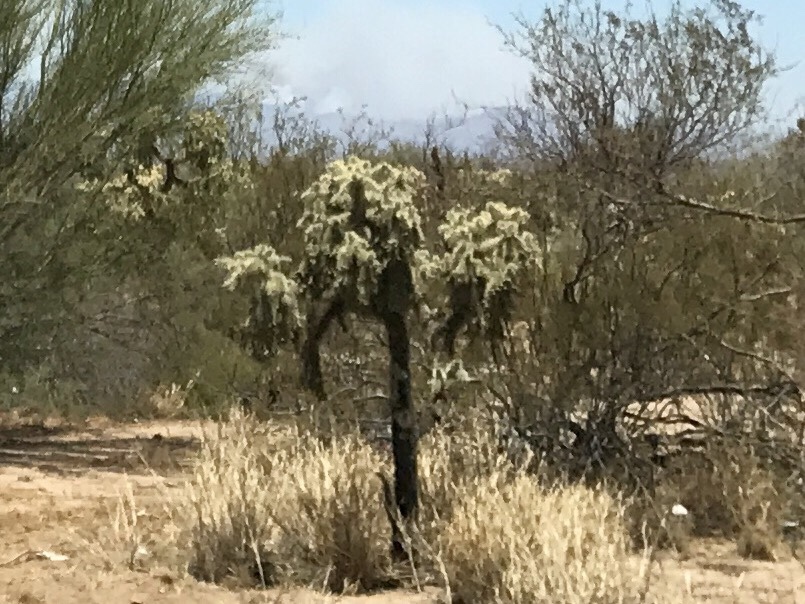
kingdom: Plantae
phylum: Tracheophyta
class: Magnoliopsida
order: Caryophyllales
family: Cactaceae
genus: Cylindropuntia
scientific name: Cylindropuntia fulgida
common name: Jumping cholla
